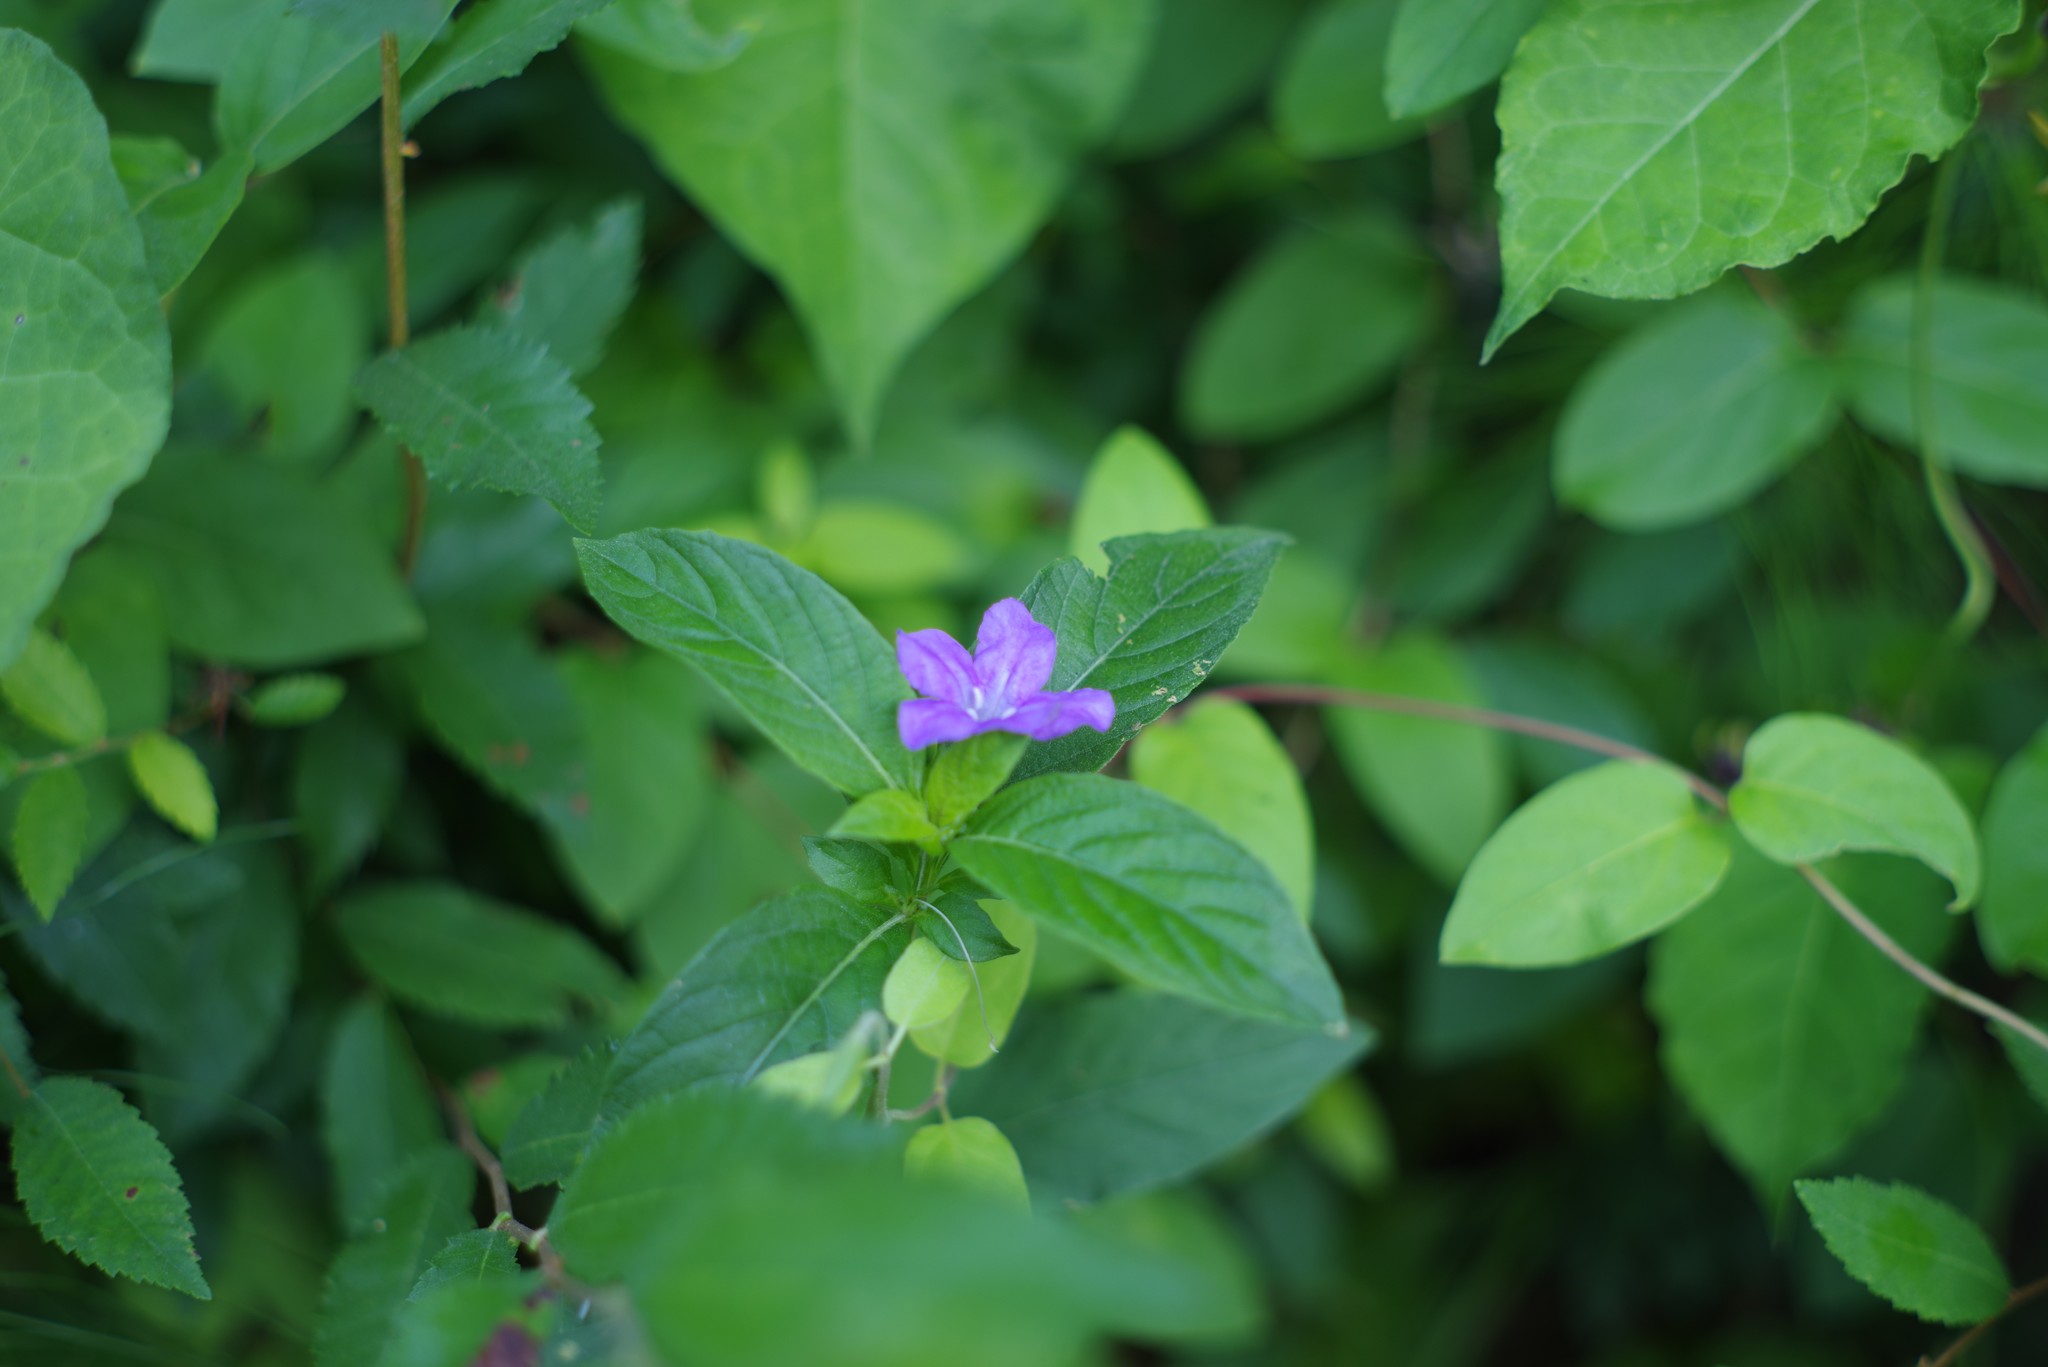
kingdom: Plantae
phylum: Tracheophyta
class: Magnoliopsida
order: Lamiales
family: Acanthaceae
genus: Ruellia
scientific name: Ruellia caroliniensis
